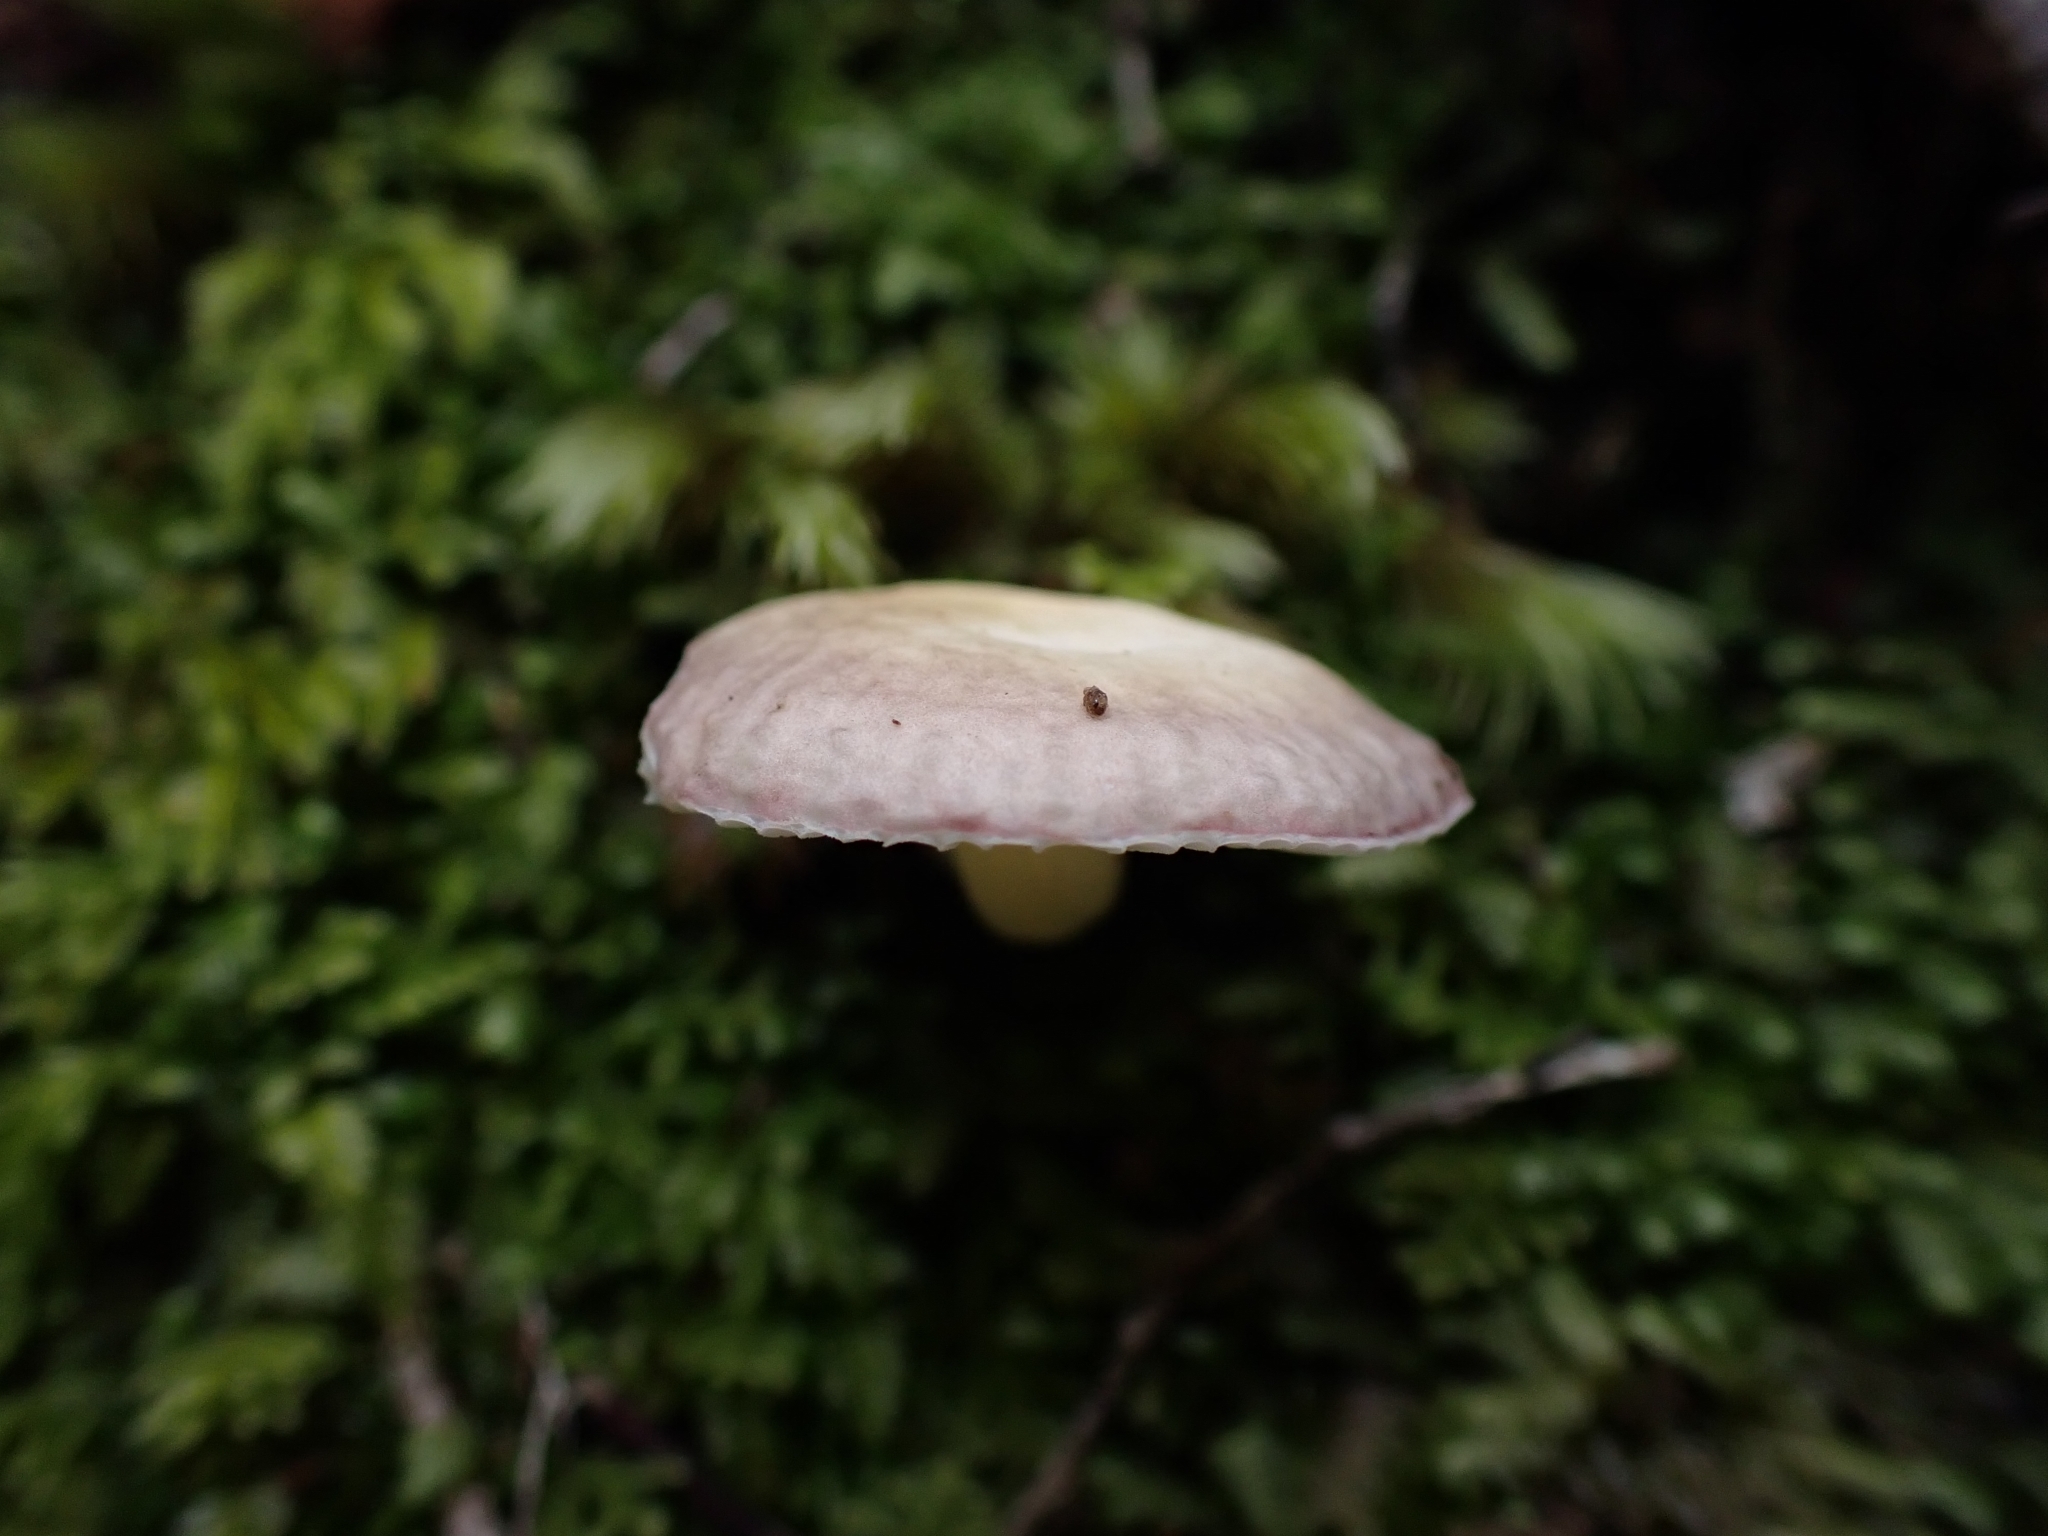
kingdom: Fungi
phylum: Basidiomycota
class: Agaricomycetes
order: Russulales
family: Russulaceae
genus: Russula
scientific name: Russula roseopileata
